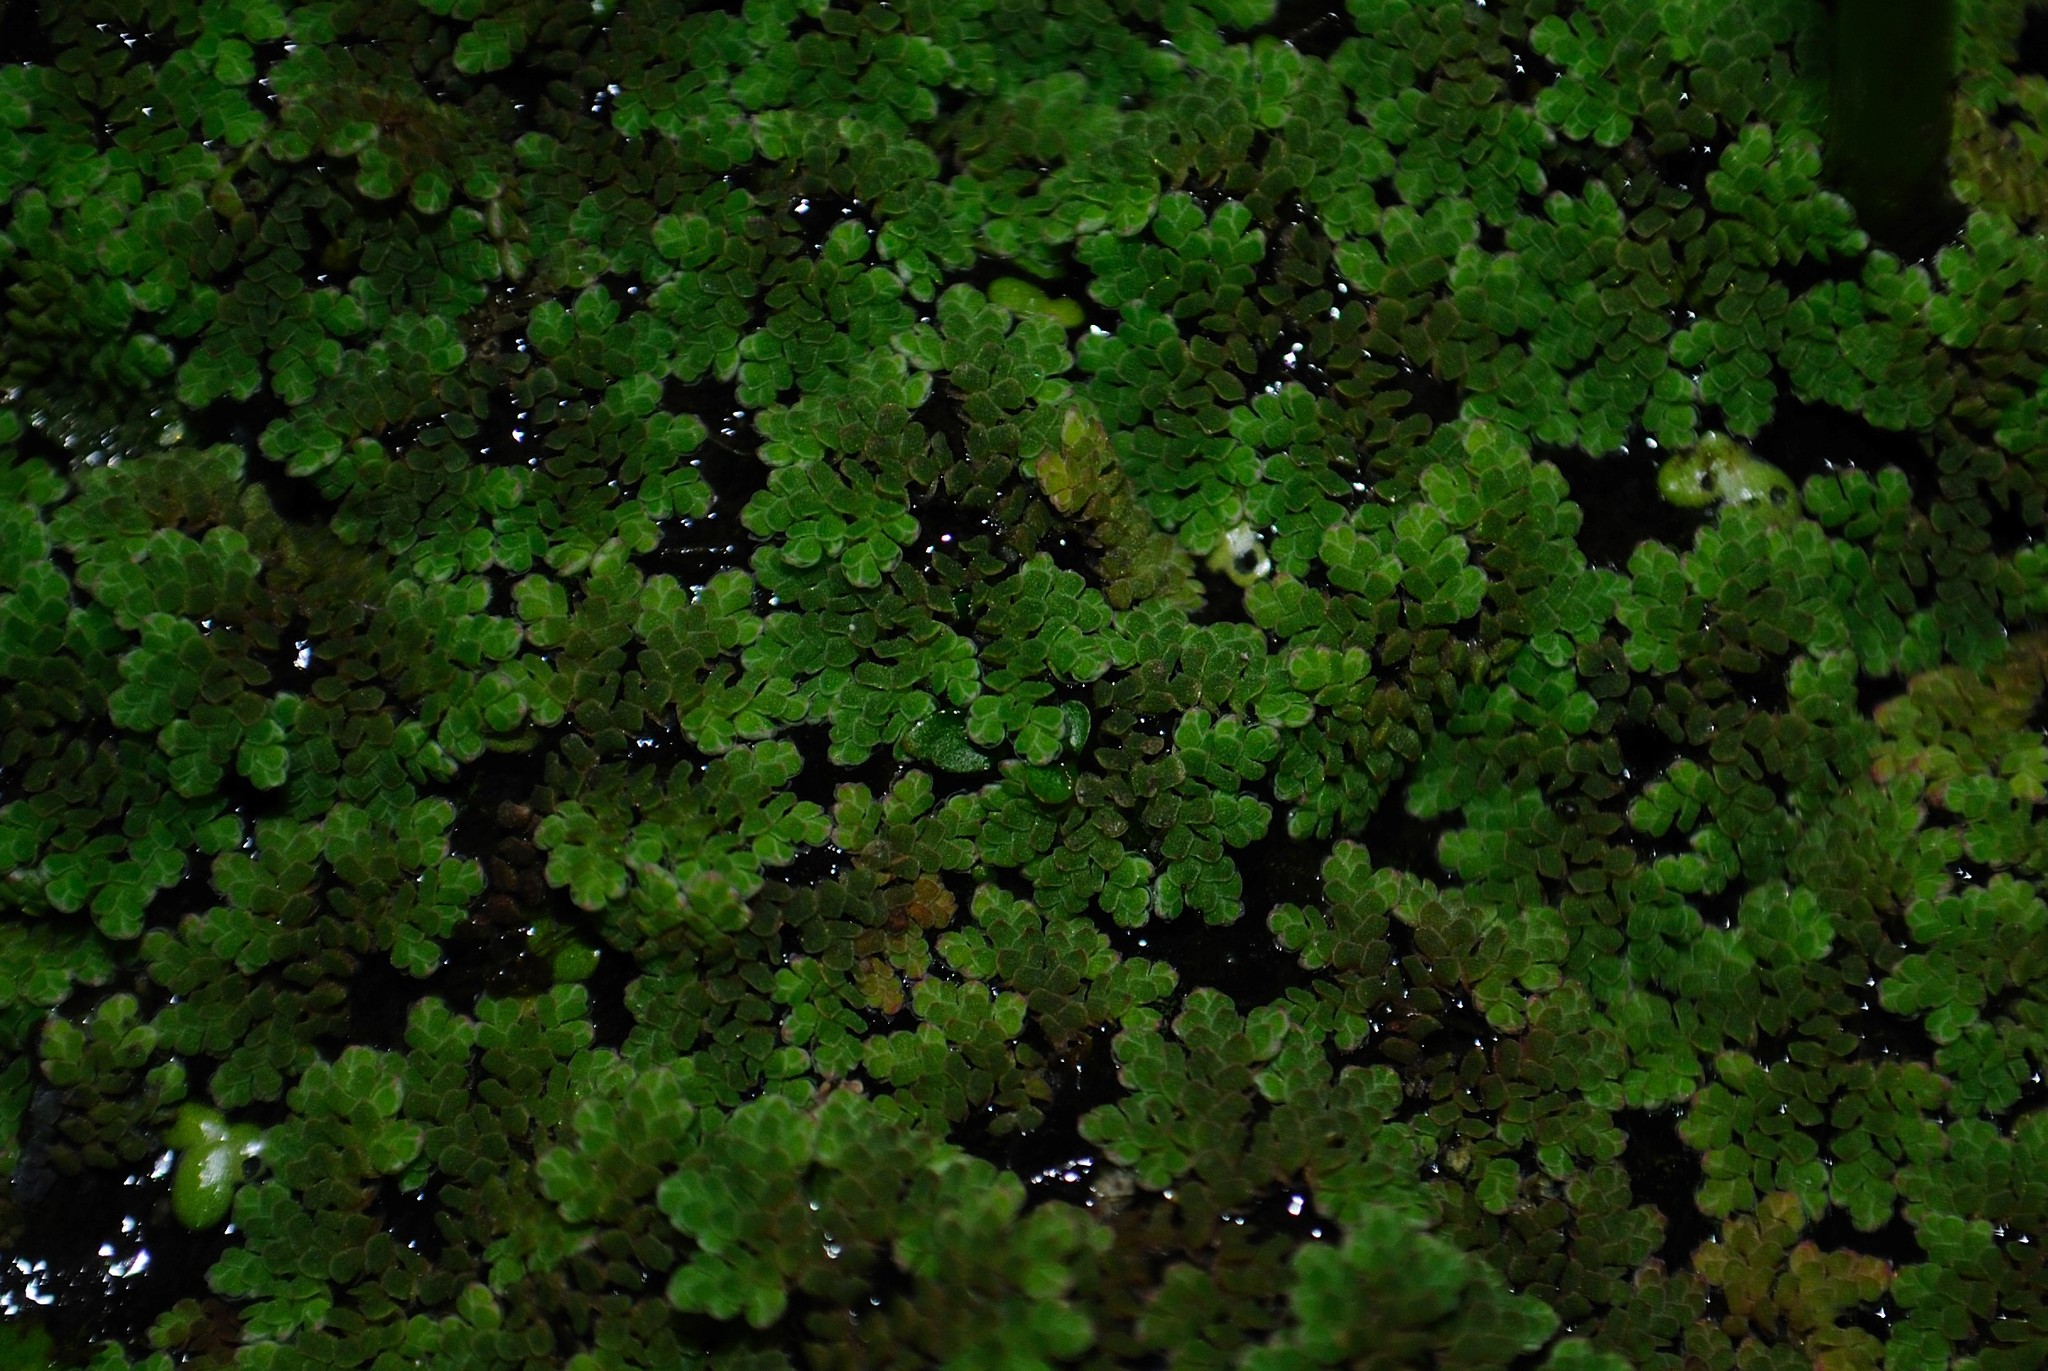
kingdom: Plantae
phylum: Tracheophyta
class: Polypodiopsida
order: Salviniales
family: Salviniaceae
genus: Azolla
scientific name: Azolla cristata
